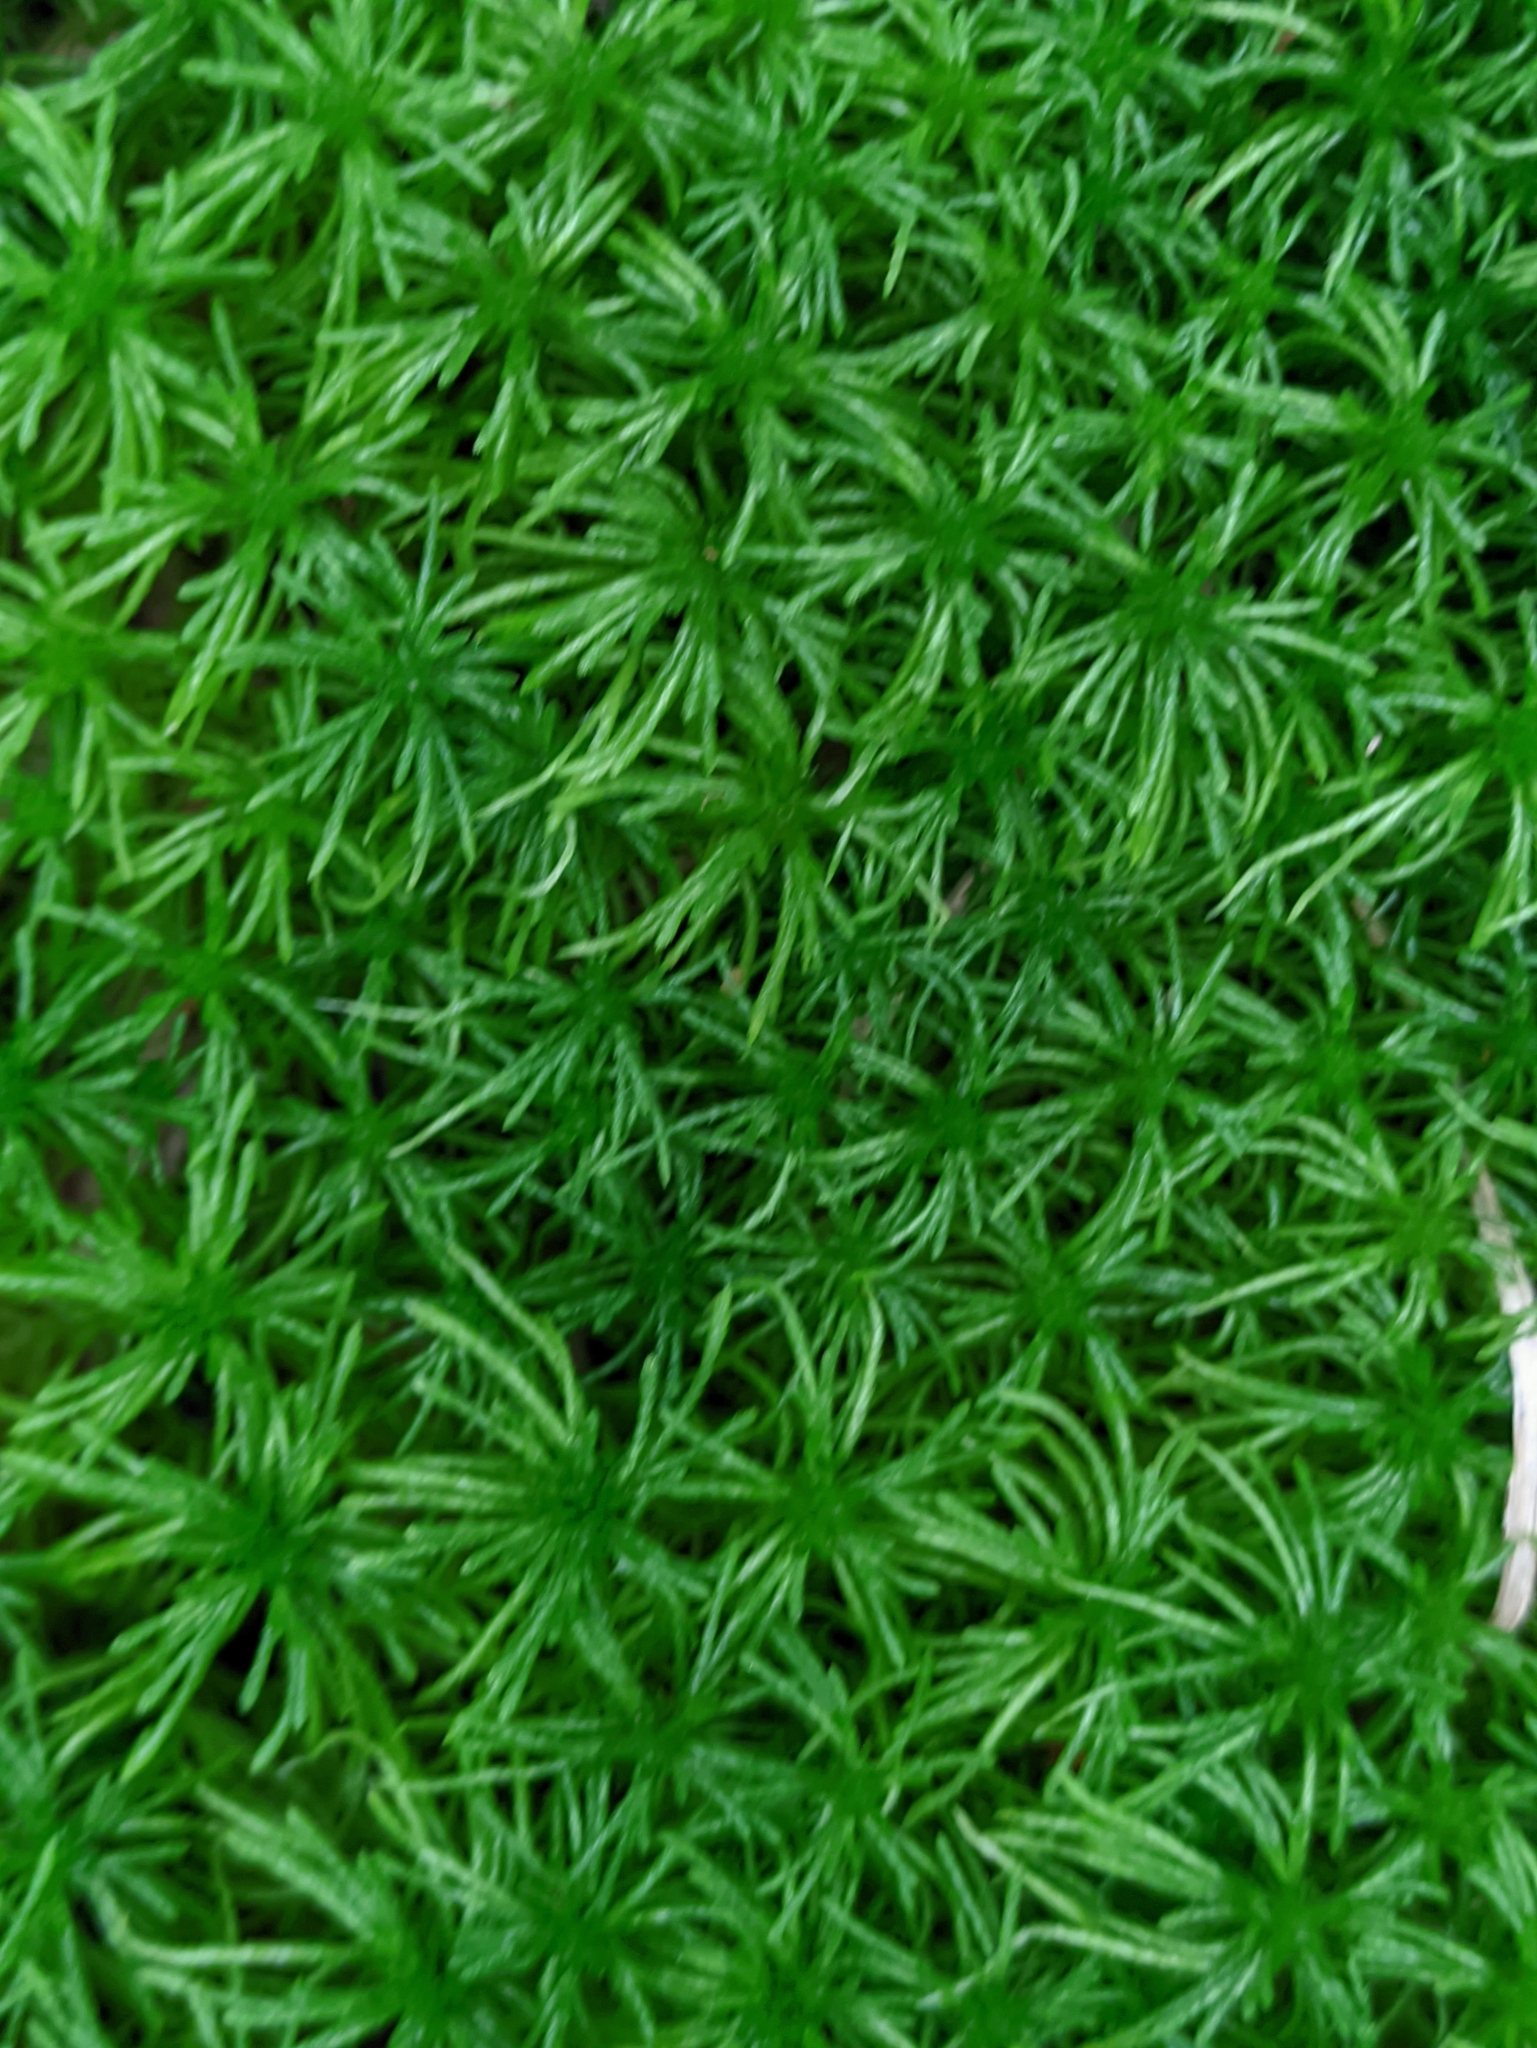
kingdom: Plantae
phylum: Bryophyta
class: Sphagnopsida
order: Sphagnales
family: Sphagnaceae
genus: Sphagnum
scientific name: Sphagnum girgensohnii
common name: Girgensohn's peat moss
